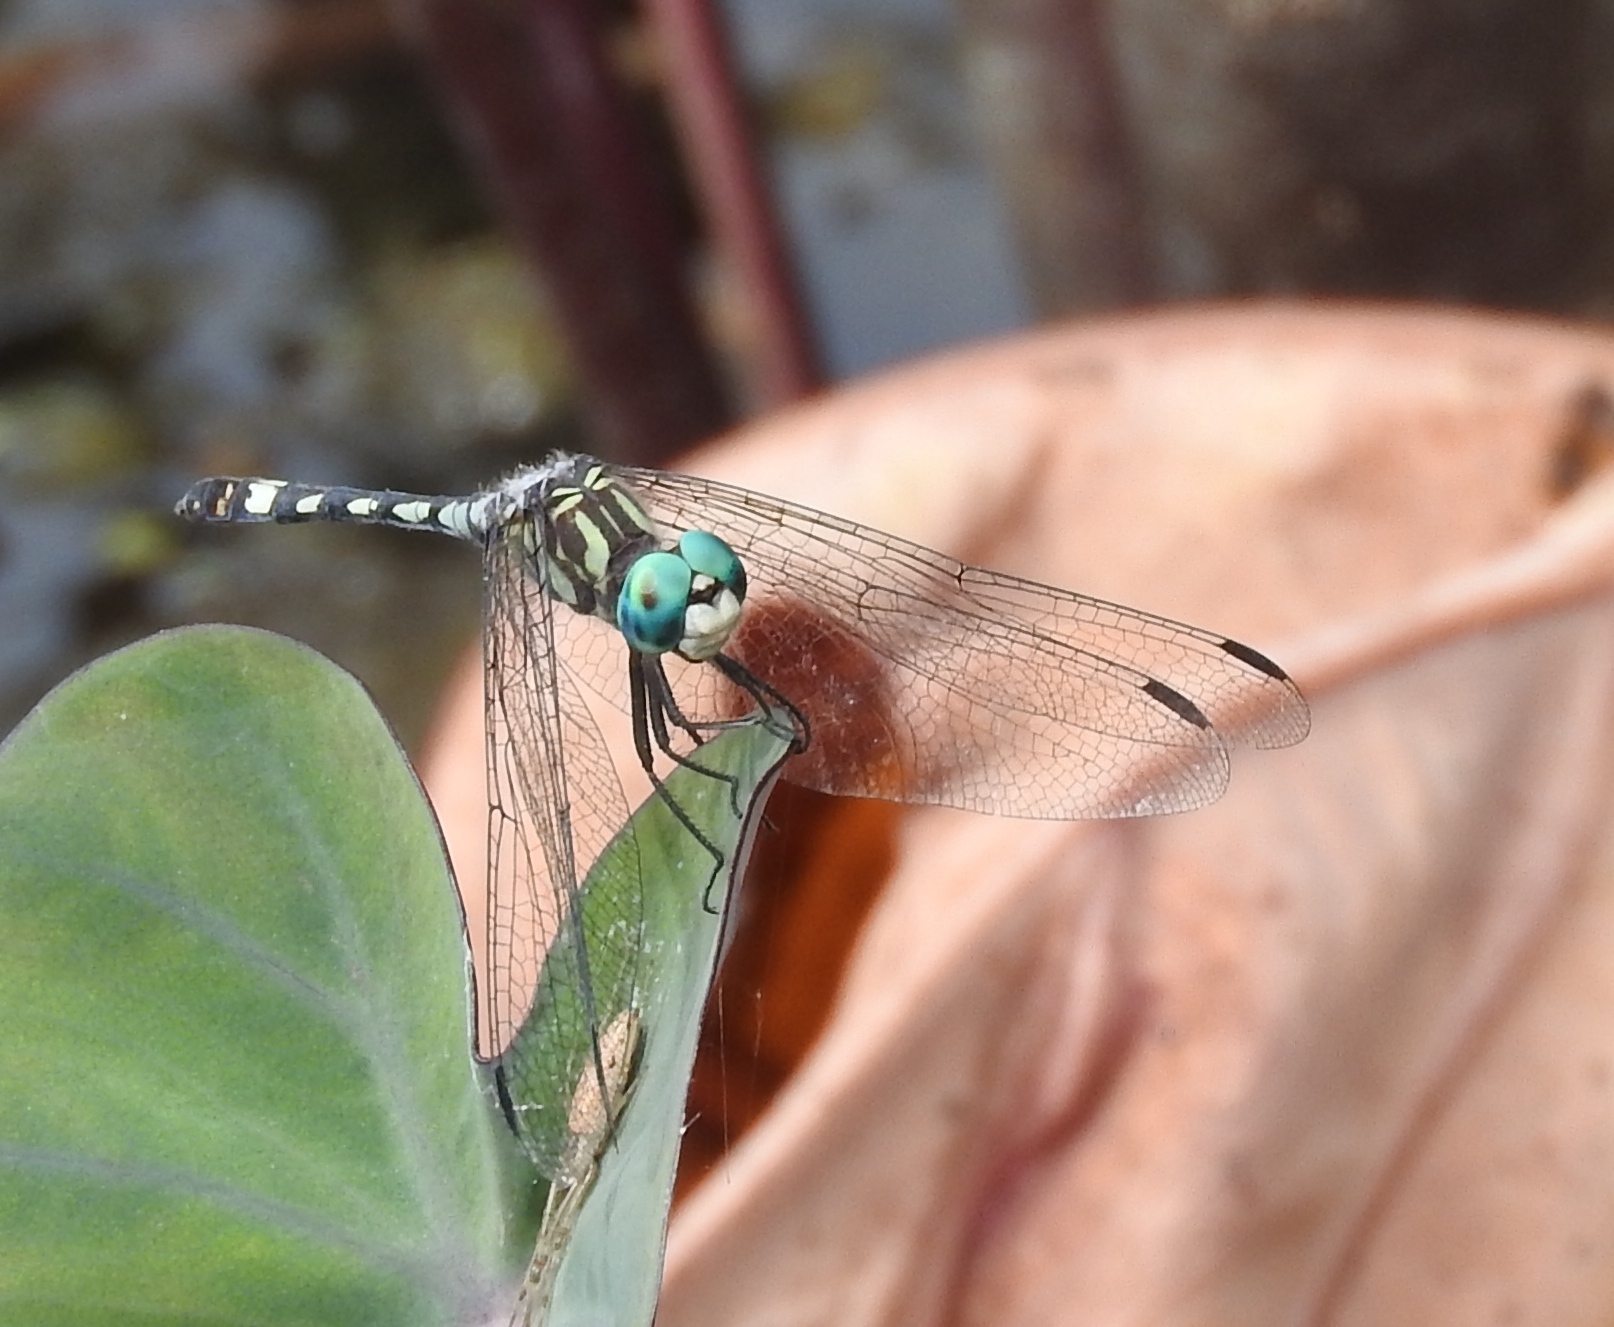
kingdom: Animalia
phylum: Arthropoda
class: Insecta
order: Odonata
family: Libellulidae
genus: Micrathyria
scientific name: Micrathyria hagenii
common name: Thornbush dasher
